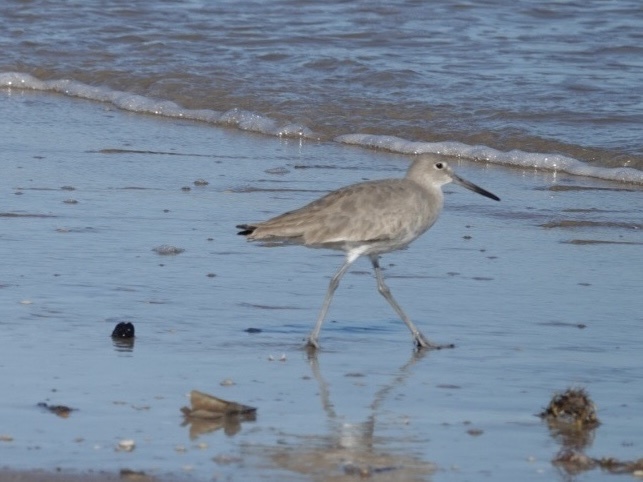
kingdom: Animalia
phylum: Chordata
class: Aves
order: Charadriiformes
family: Scolopacidae
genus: Tringa
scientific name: Tringa semipalmata
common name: Willet
